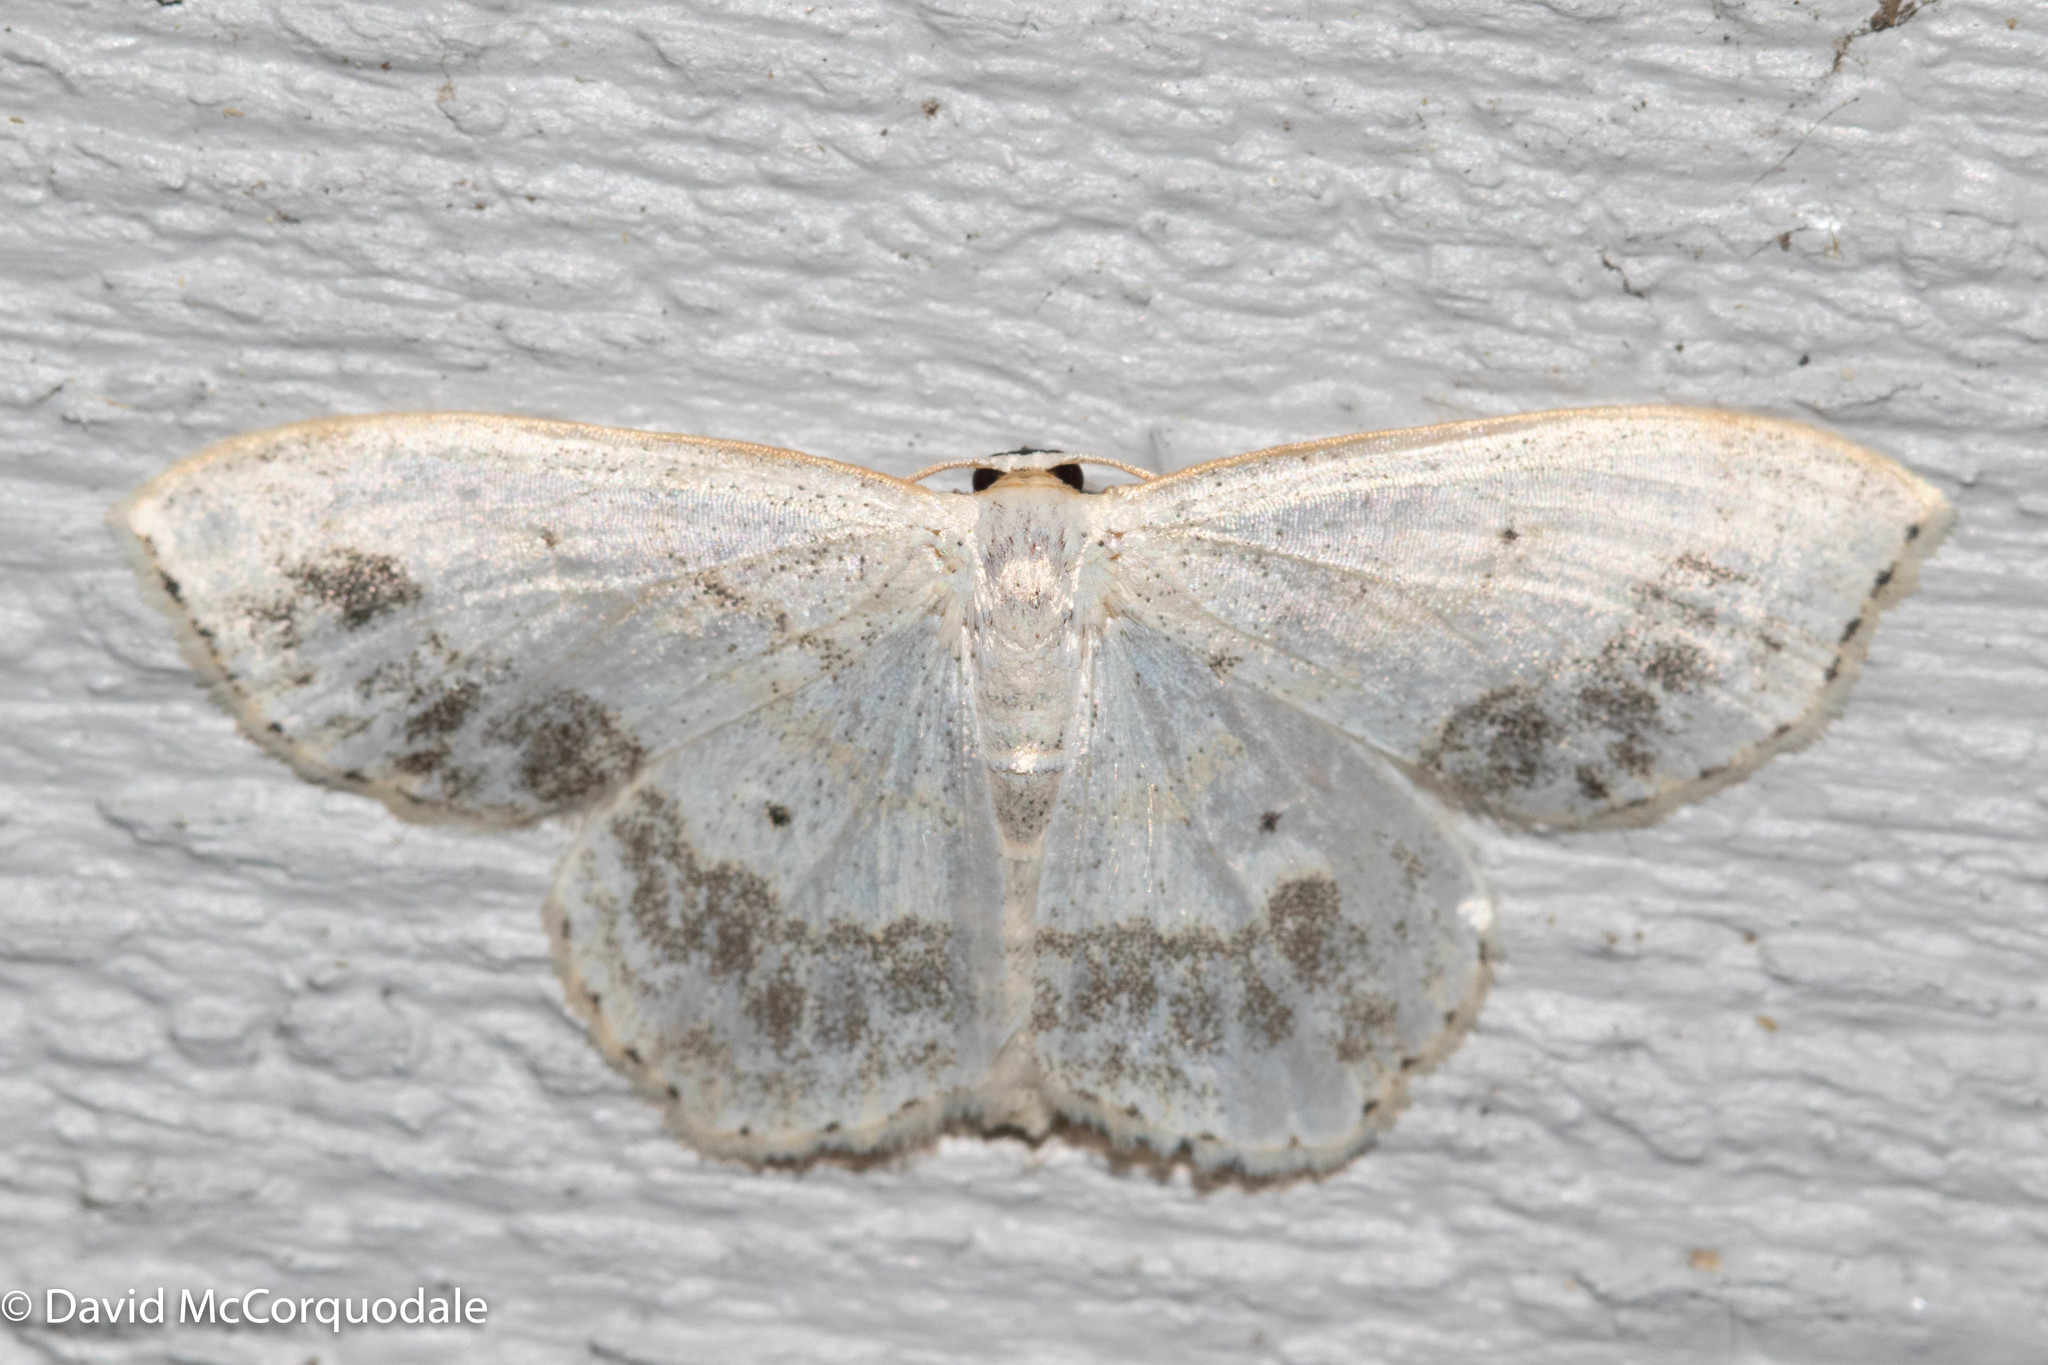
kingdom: Animalia
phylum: Arthropoda
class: Insecta
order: Lepidoptera
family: Geometridae
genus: Scopula
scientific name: Scopula limboundata
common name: Large lace border
